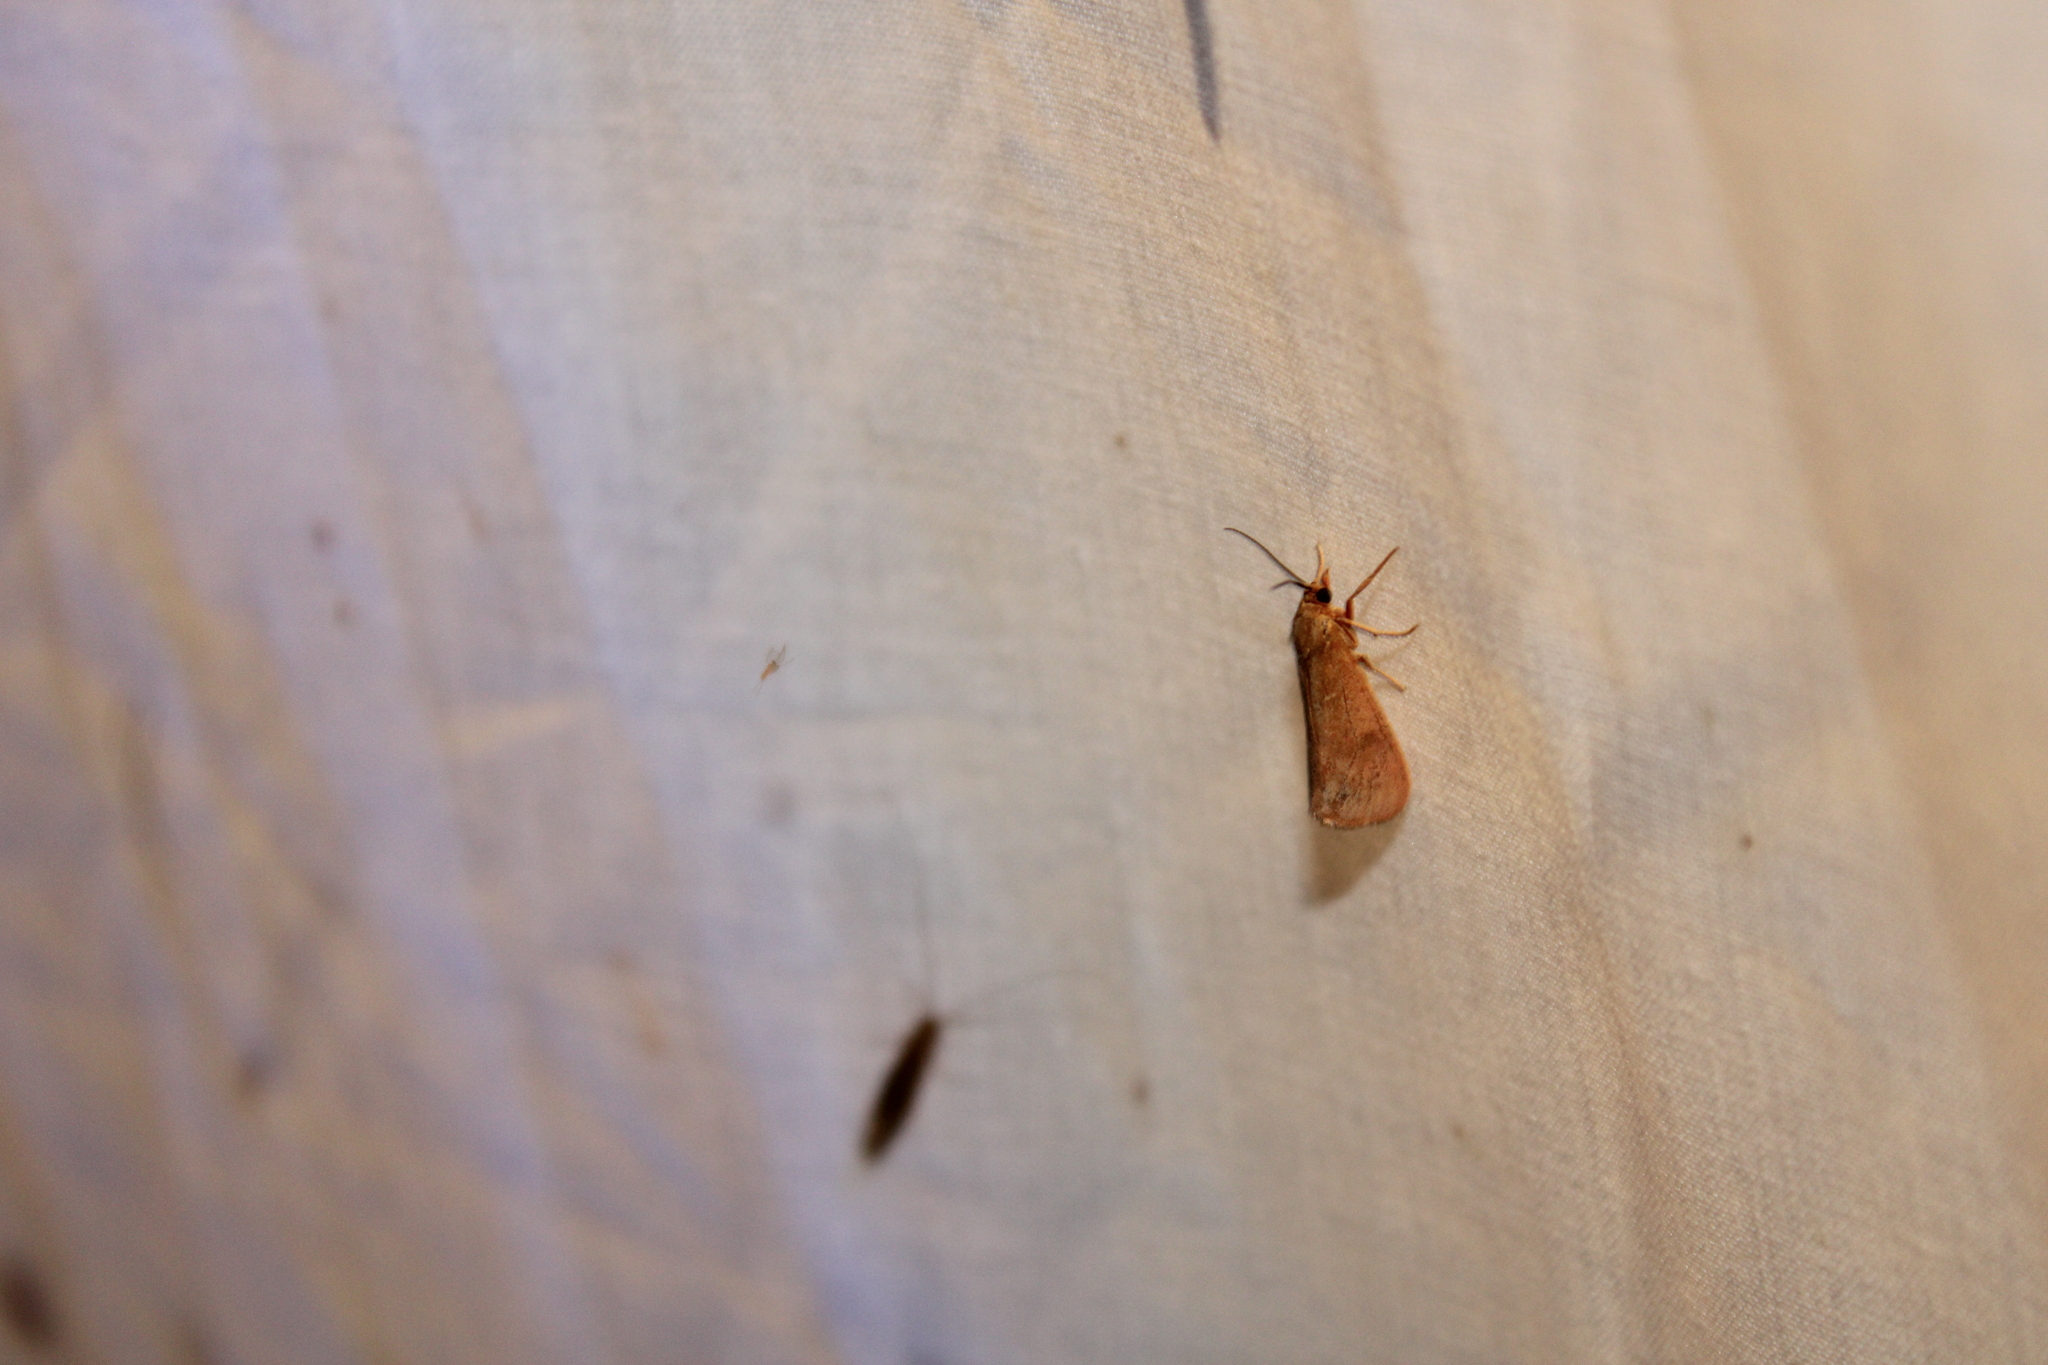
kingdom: Animalia
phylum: Arthropoda
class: Insecta
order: Lepidoptera
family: Erebidae
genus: Virbia
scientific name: Virbia aurantiaca
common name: Orange virbia moth
